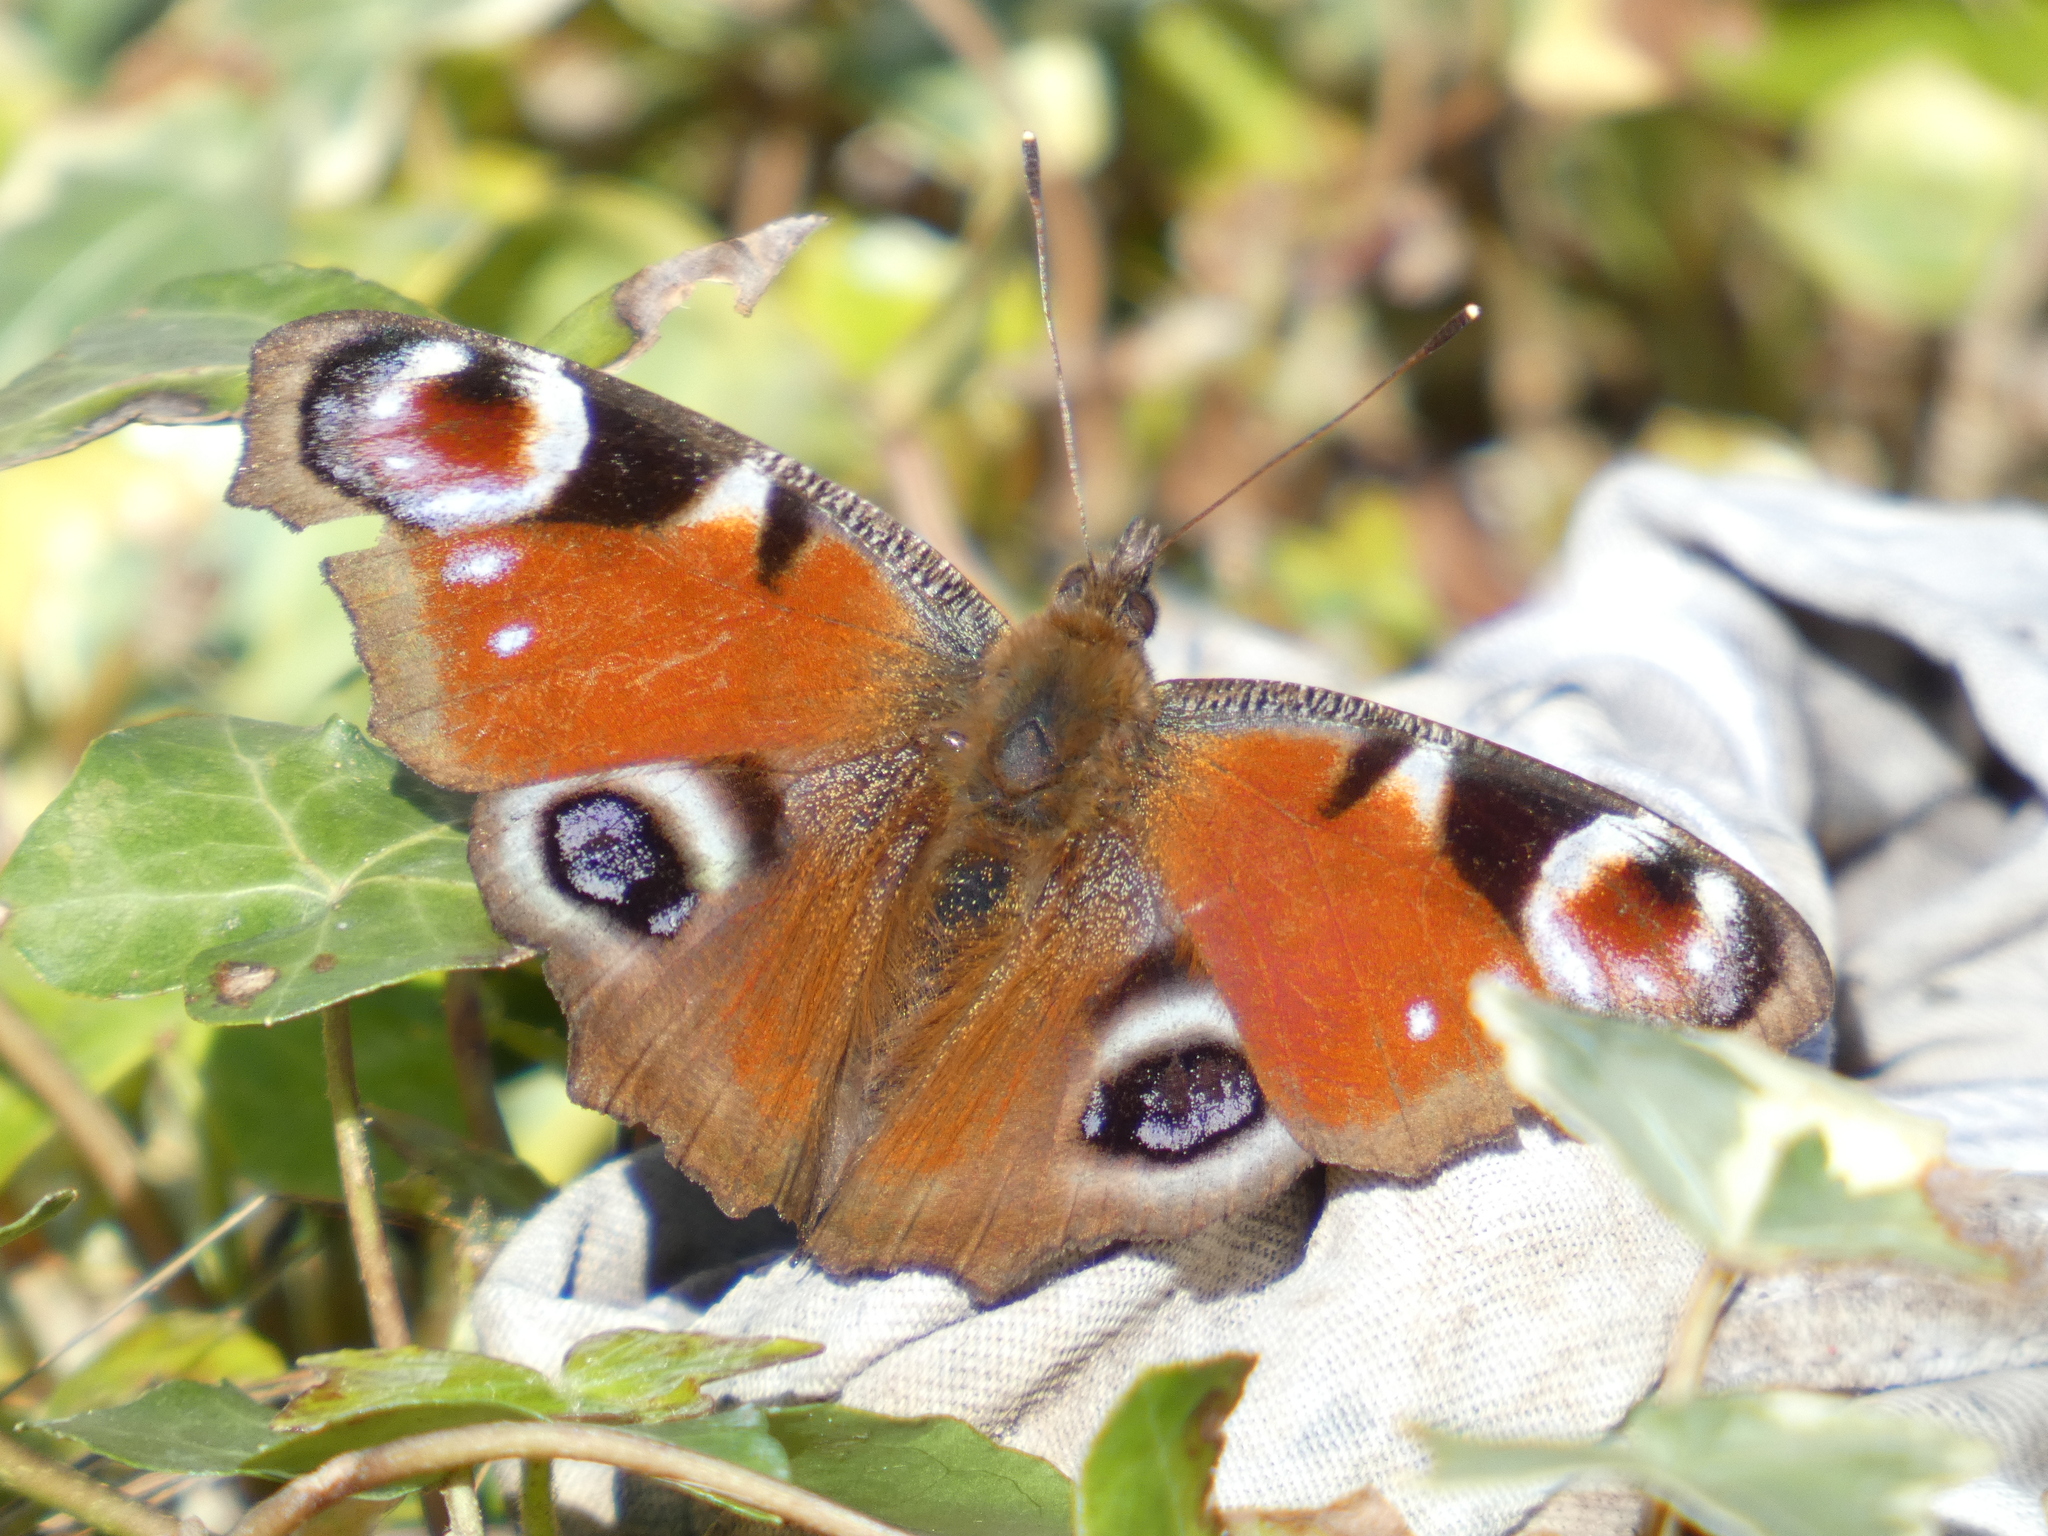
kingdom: Animalia
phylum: Arthropoda
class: Insecta
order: Lepidoptera
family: Nymphalidae
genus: Aglais
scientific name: Aglais io
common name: Peacock
